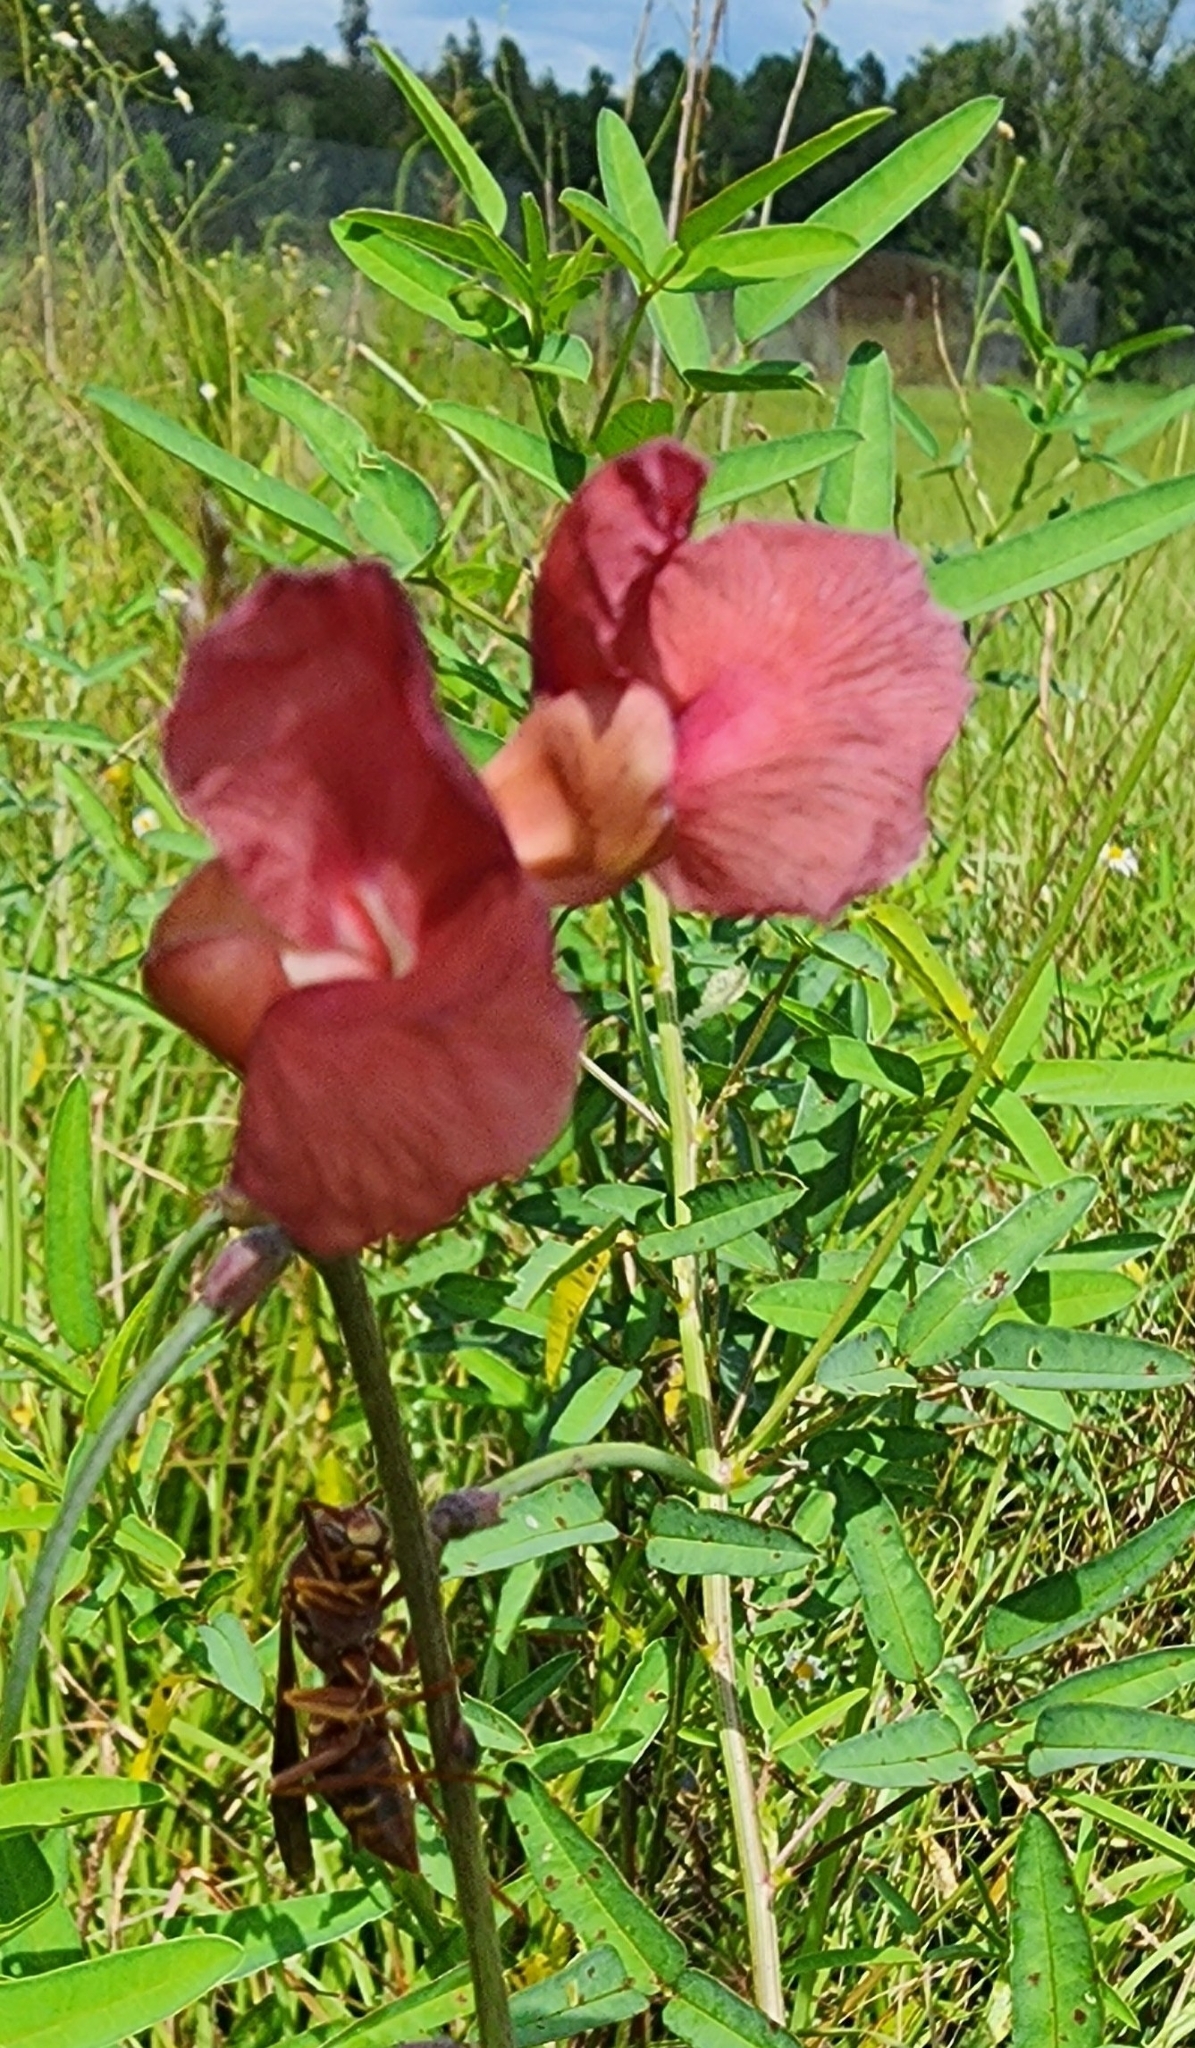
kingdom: Plantae
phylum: Tracheophyta
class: Magnoliopsida
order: Fabales
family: Fabaceae
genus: Macroptilium
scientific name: Macroptilium lathyroides
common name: Wild bushbean
